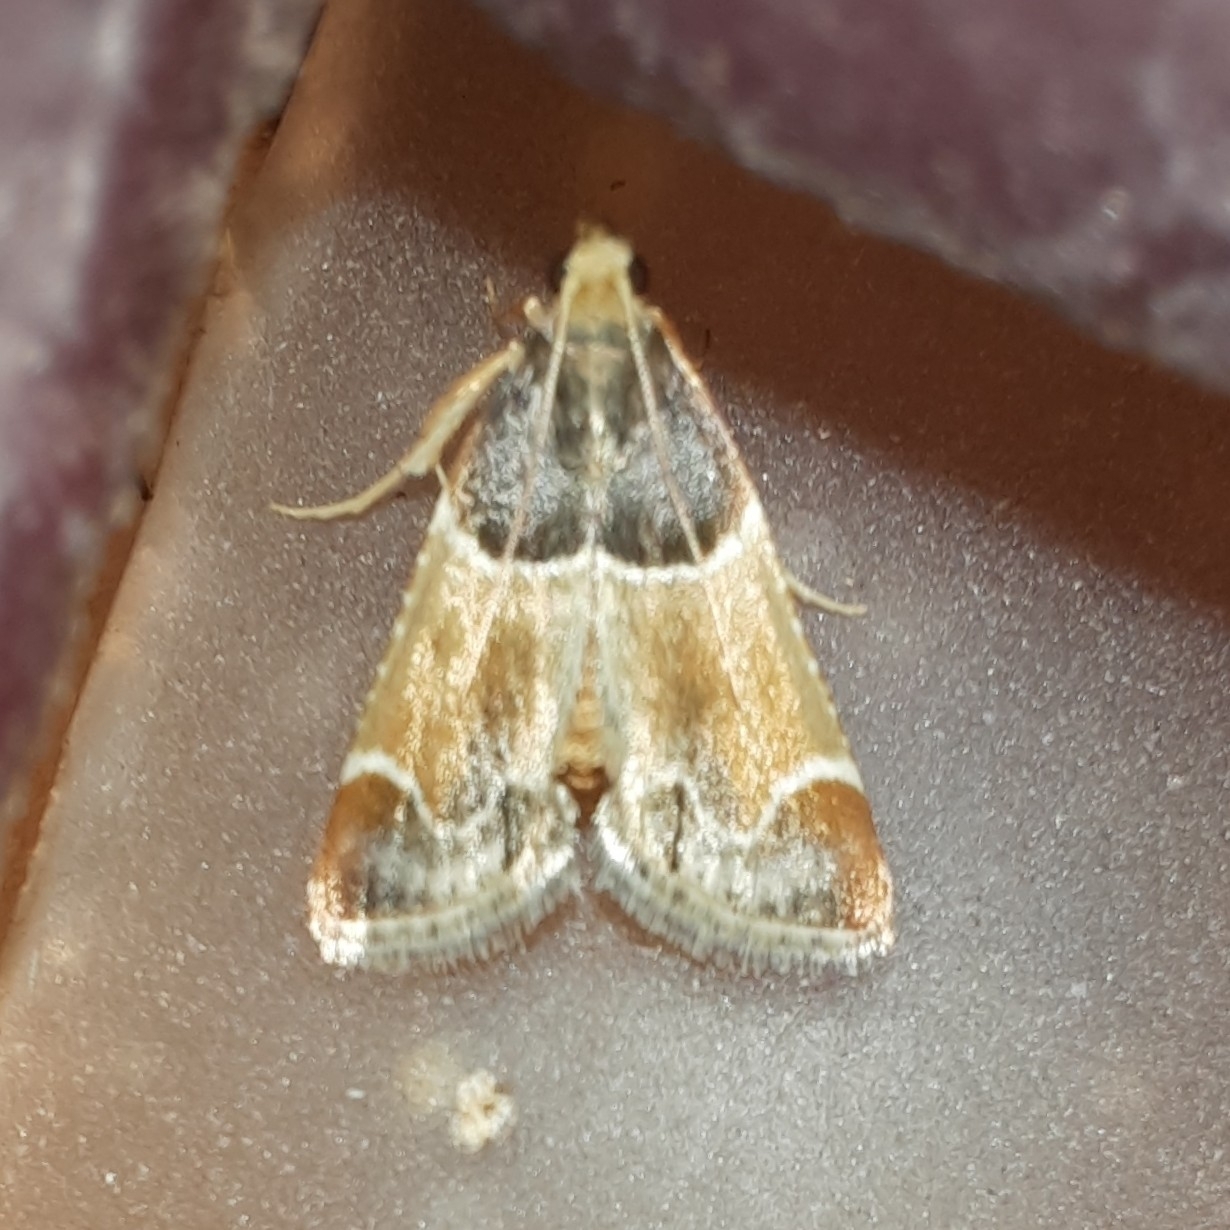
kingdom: Animalia
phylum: Arthropoda
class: Insecta
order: Lepidoptera
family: Pyralidae
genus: Pyralis
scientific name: Pyralis farinalis
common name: Meal moth
